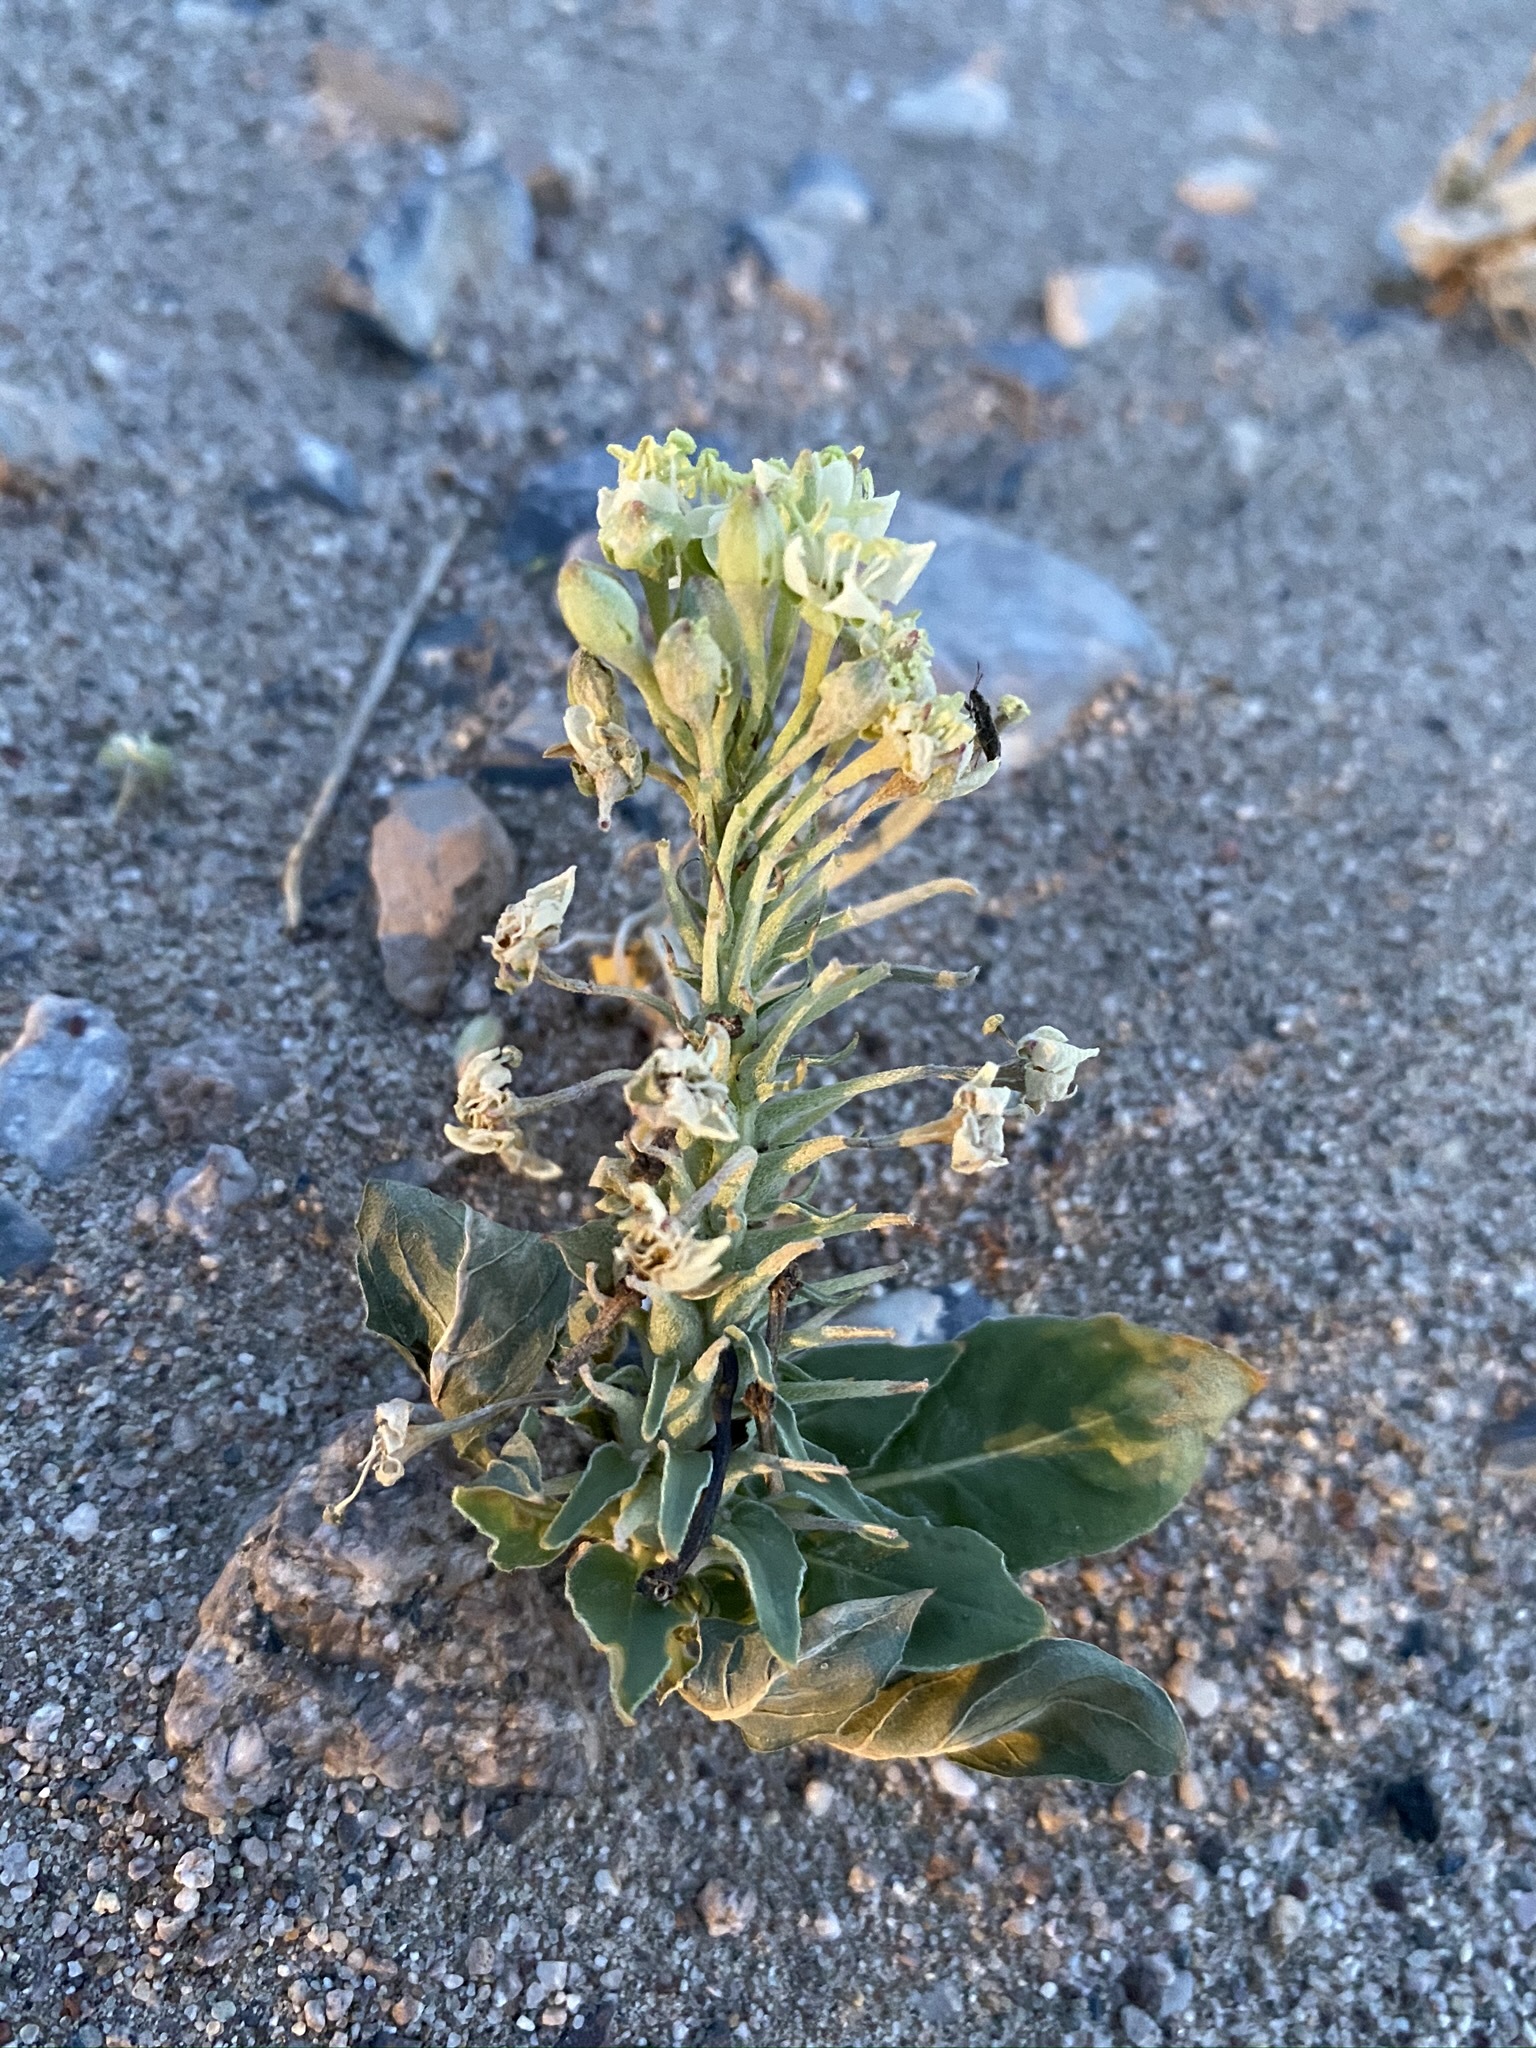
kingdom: Plantae
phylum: Tracheophyta
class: Magnoliopsida
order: Myrtales
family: Onagraceae
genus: Eremothera
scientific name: Eremothera boothii
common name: Booth's evening primrose
